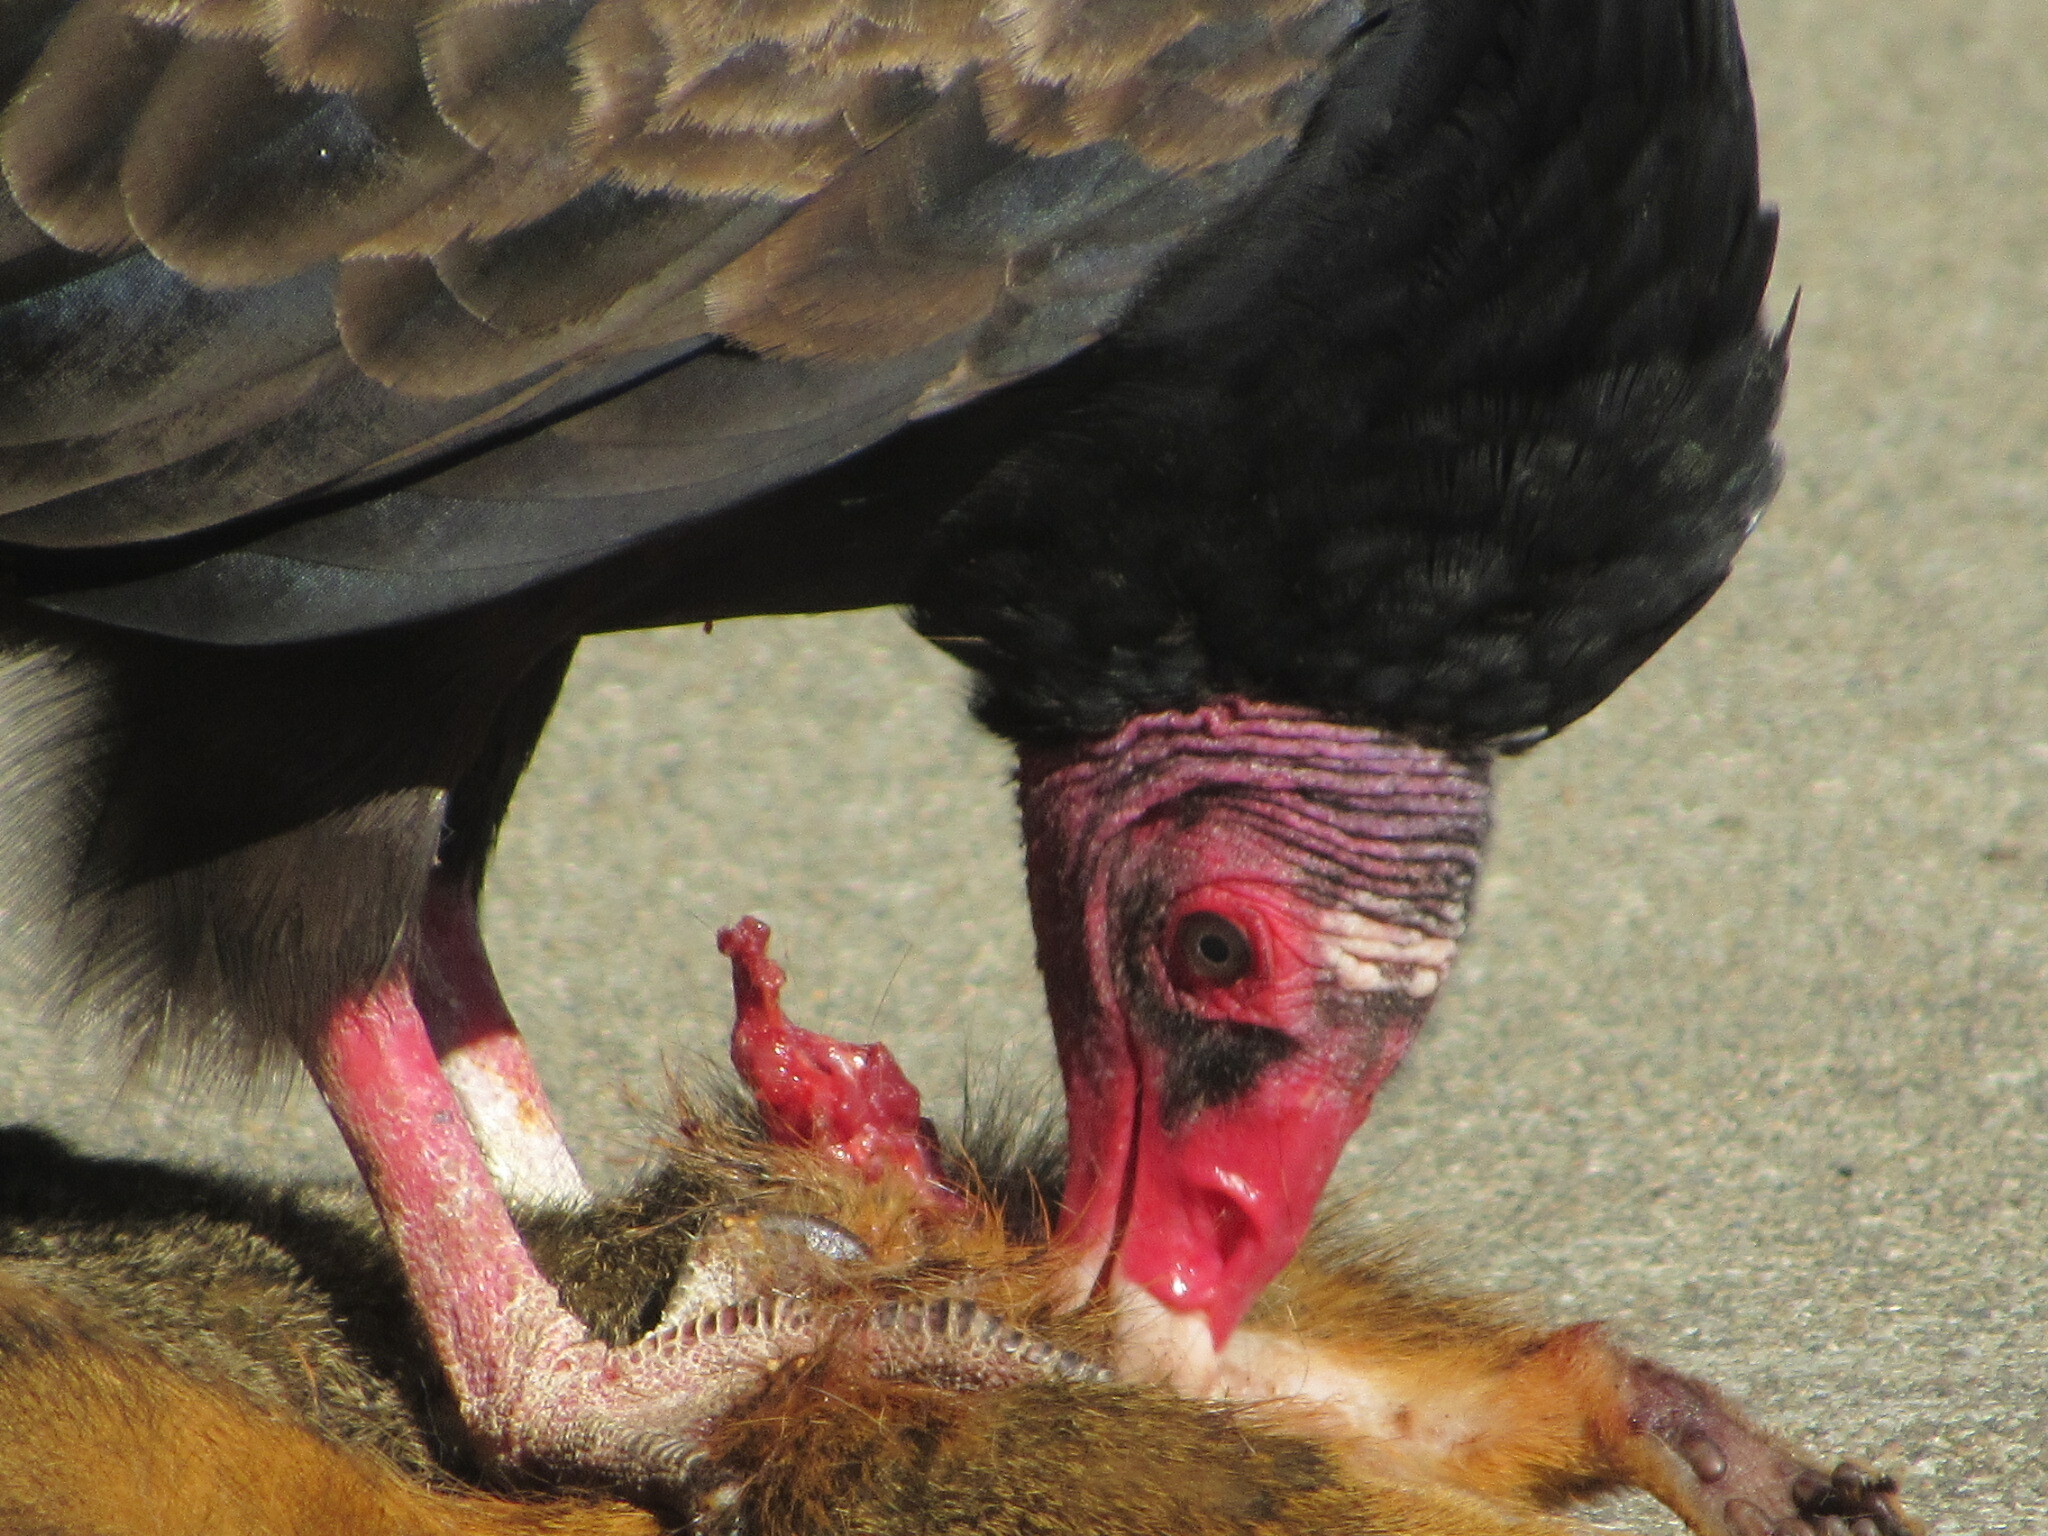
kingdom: Animalia
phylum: Chordata
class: Aves
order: Accipitriformes
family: Cathartidae
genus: Cathartes
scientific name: Cathartes aura
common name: Turkey vulture
